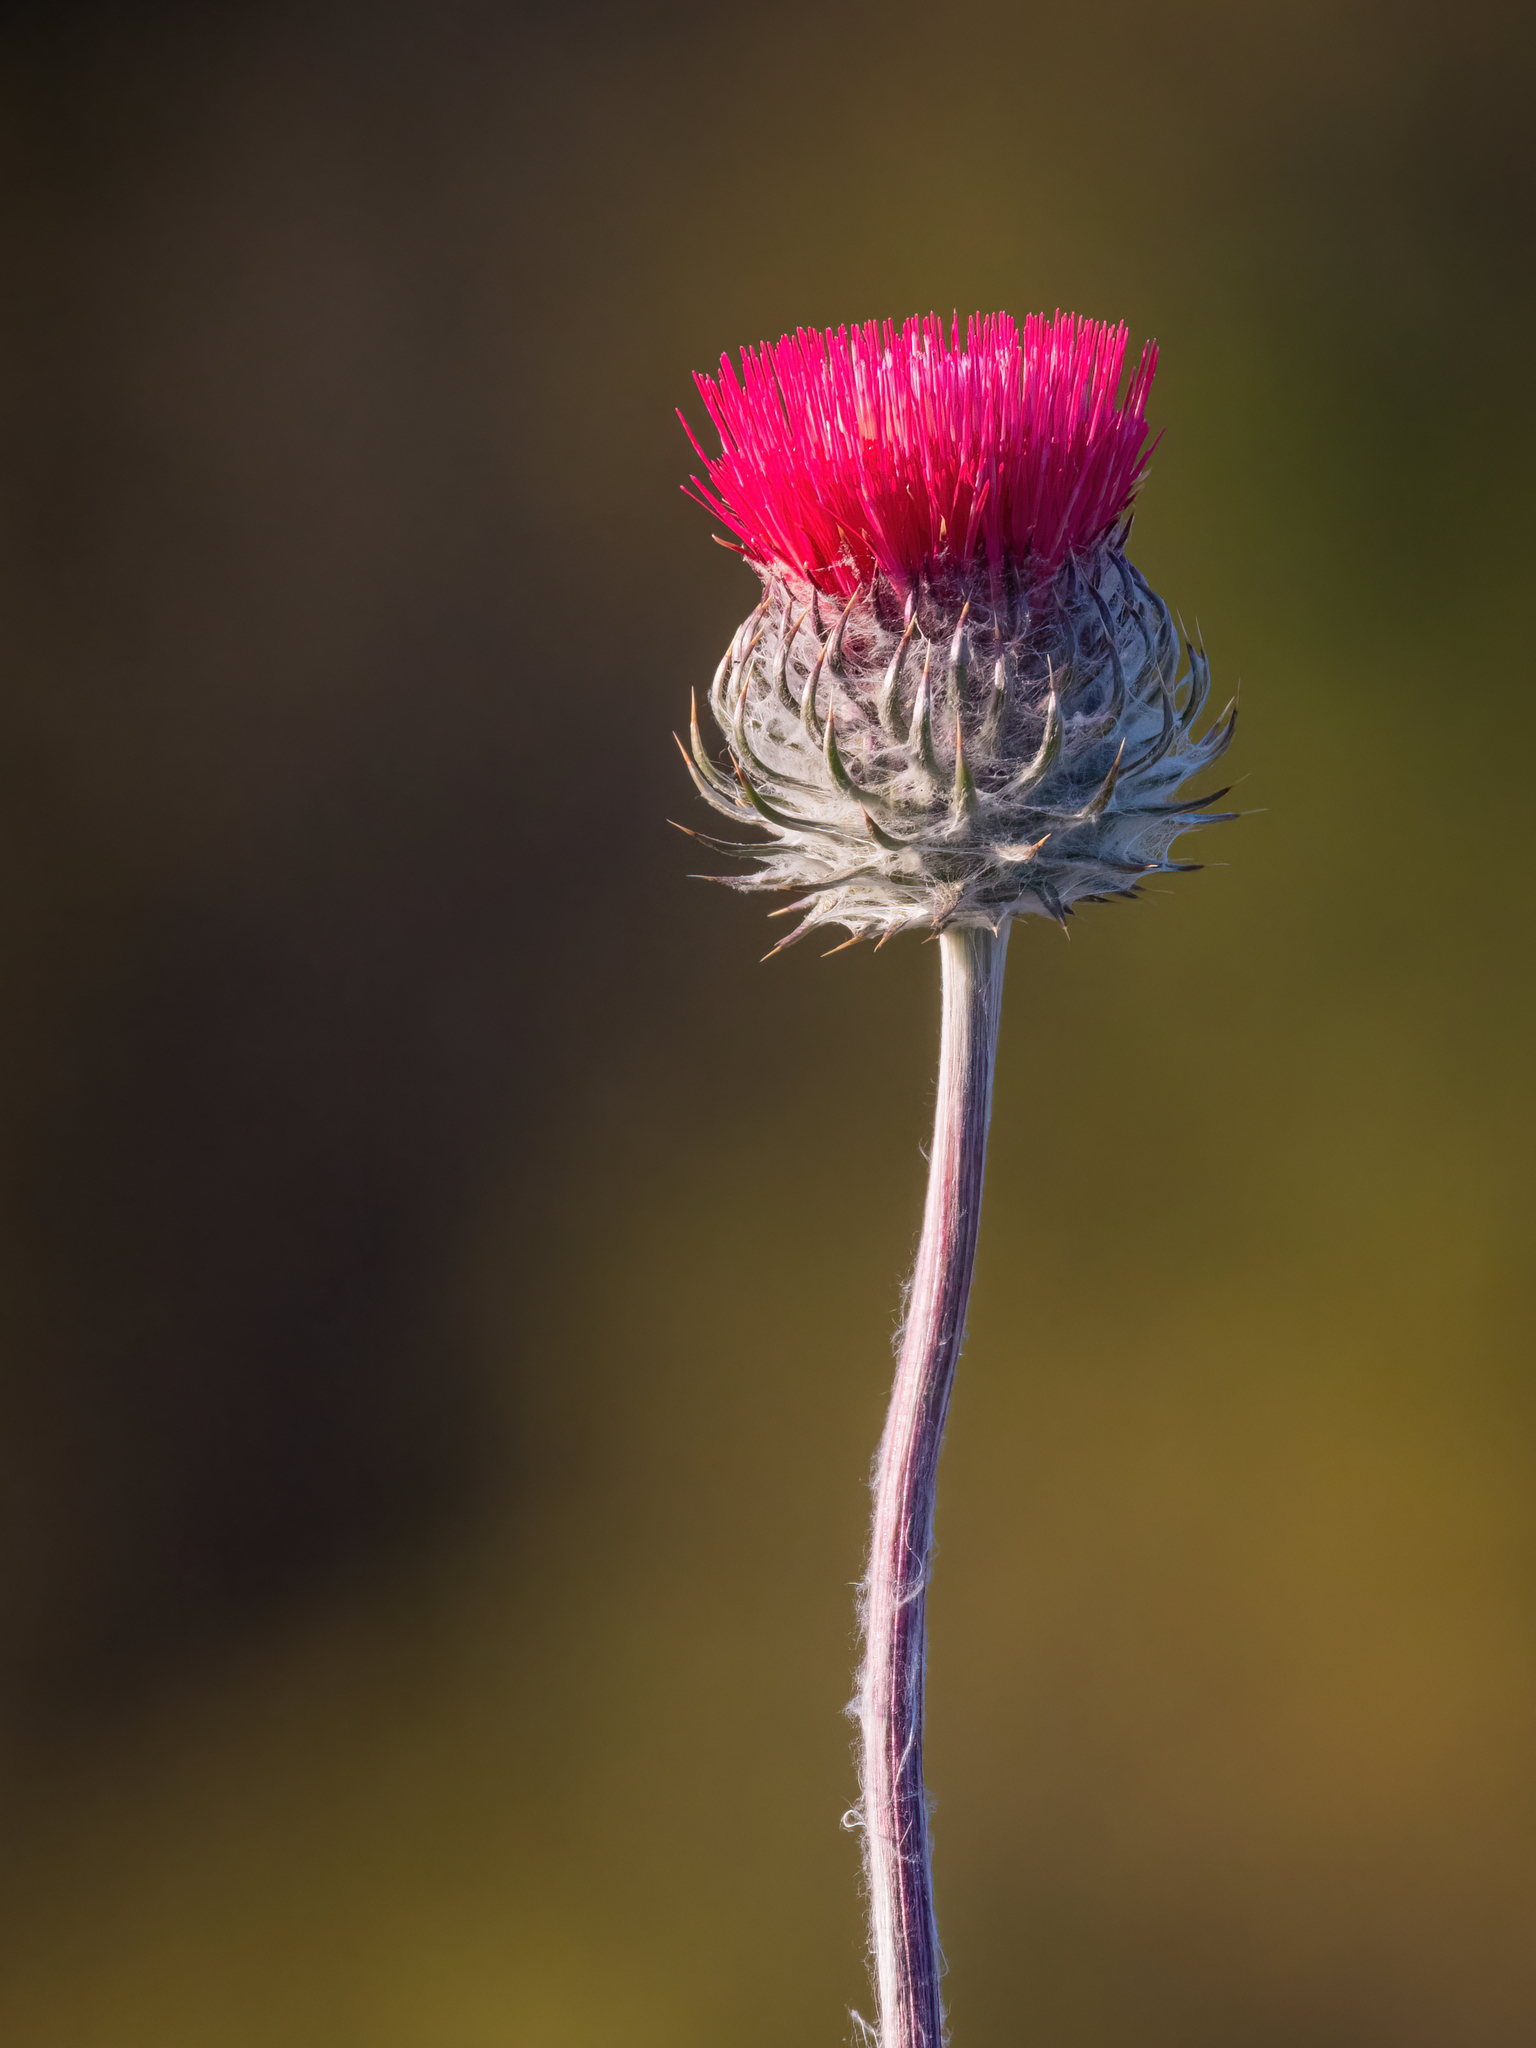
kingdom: Plantae
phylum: Tracheophyta
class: Magnoliopsida
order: Asterales
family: Asteraceae
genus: Cirsium
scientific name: Cirsium occidentale
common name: Western thistle
